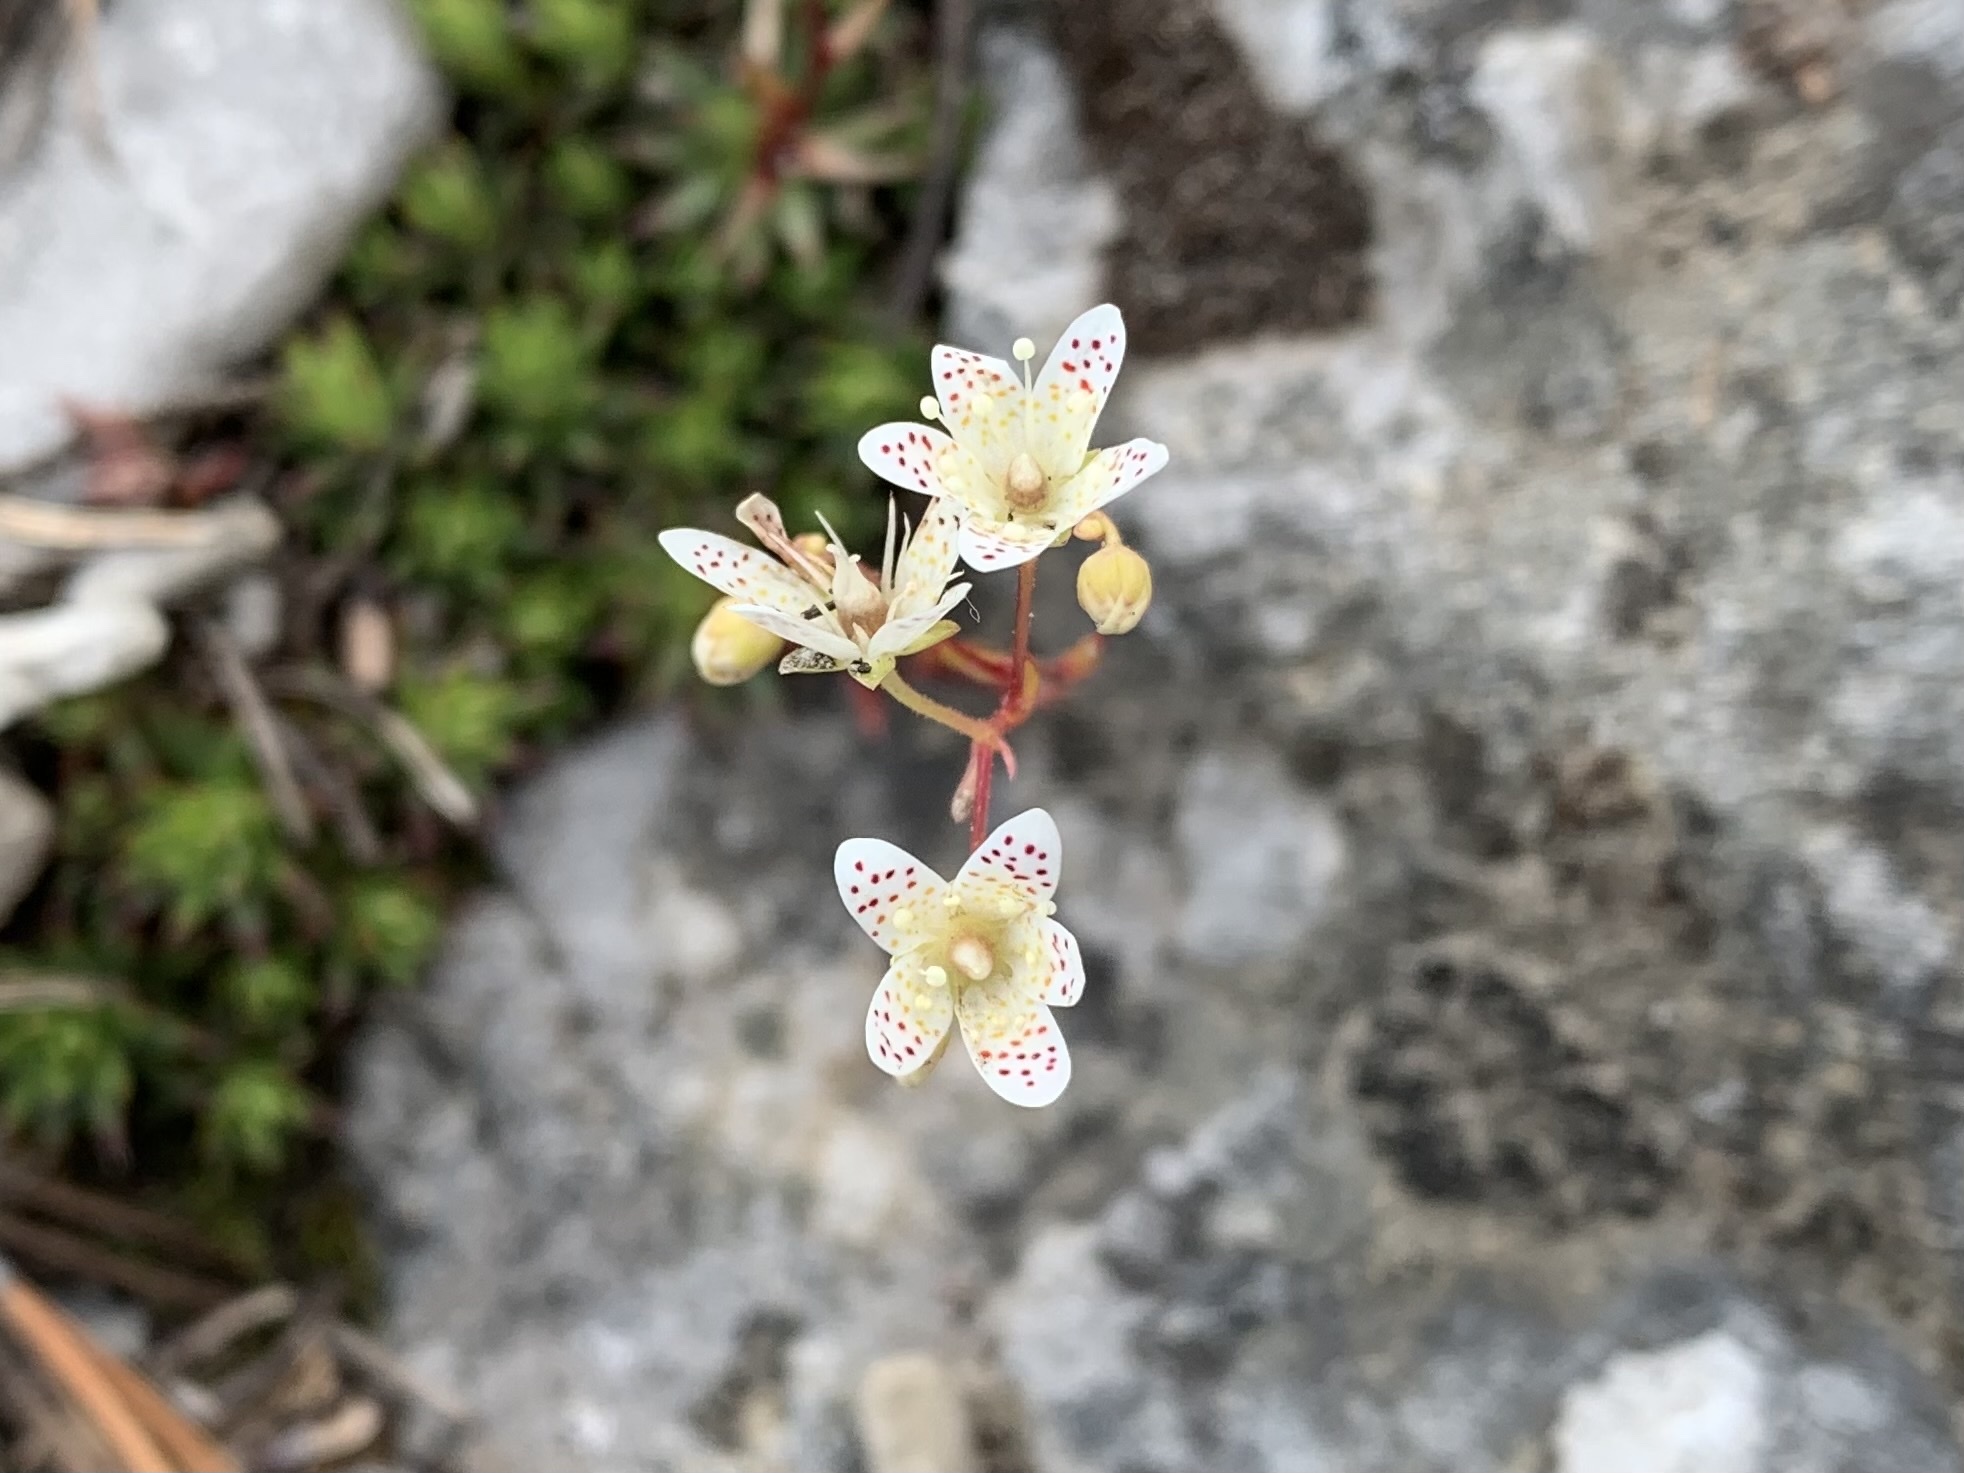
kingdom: Plantae
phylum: Tracheophyta
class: Magnoliopsida
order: Saxifragales
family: Saxifragaceae
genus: Saxifraga
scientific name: Saxifraga bronchialis
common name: Matted saxifrage
